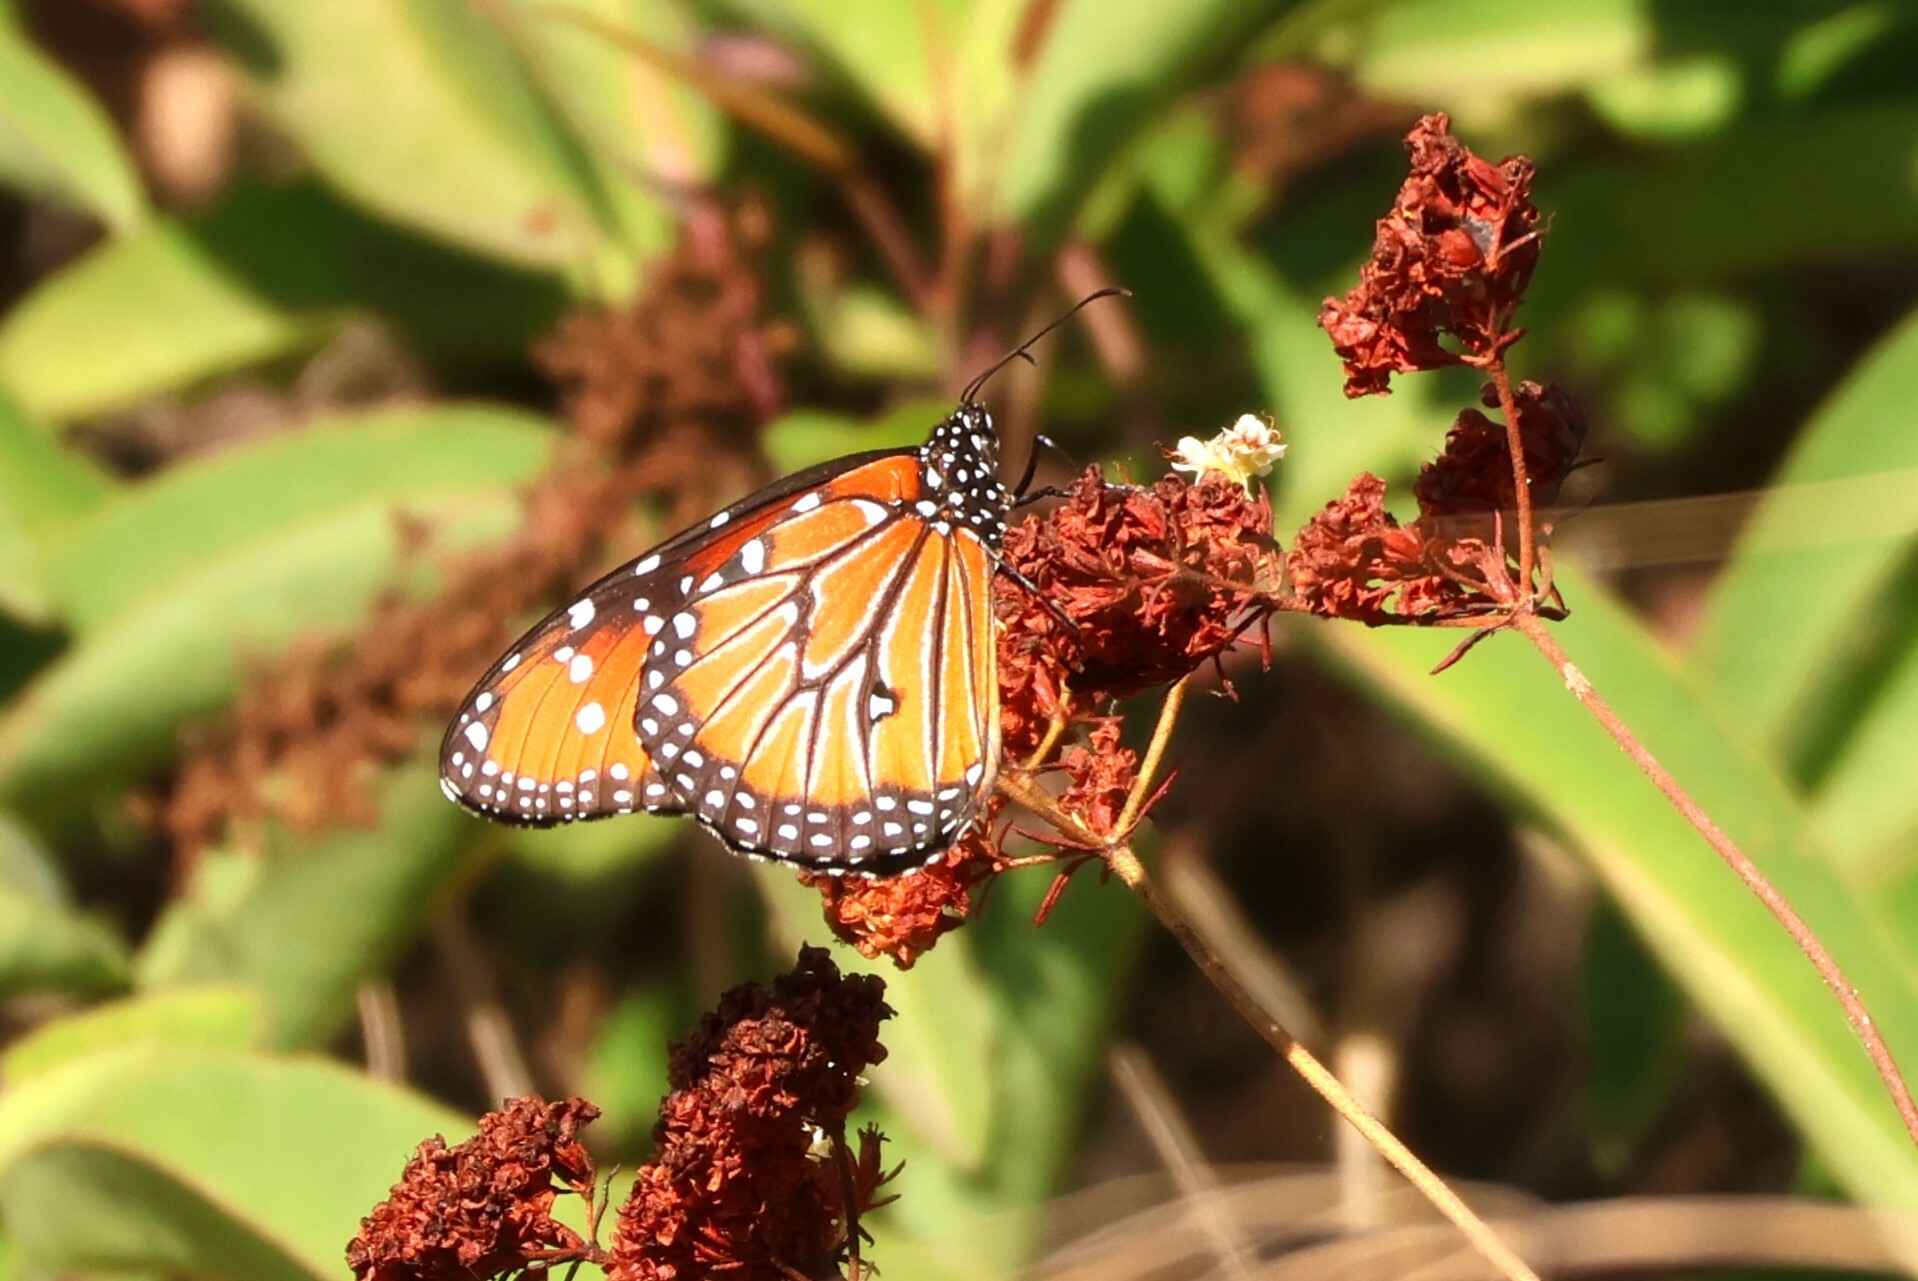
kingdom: Animalia
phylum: Arthropoda
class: Insecta
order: Lepidoptera
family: Nymphalidae
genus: Danaus
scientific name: Danaus gilippus
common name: Queen
